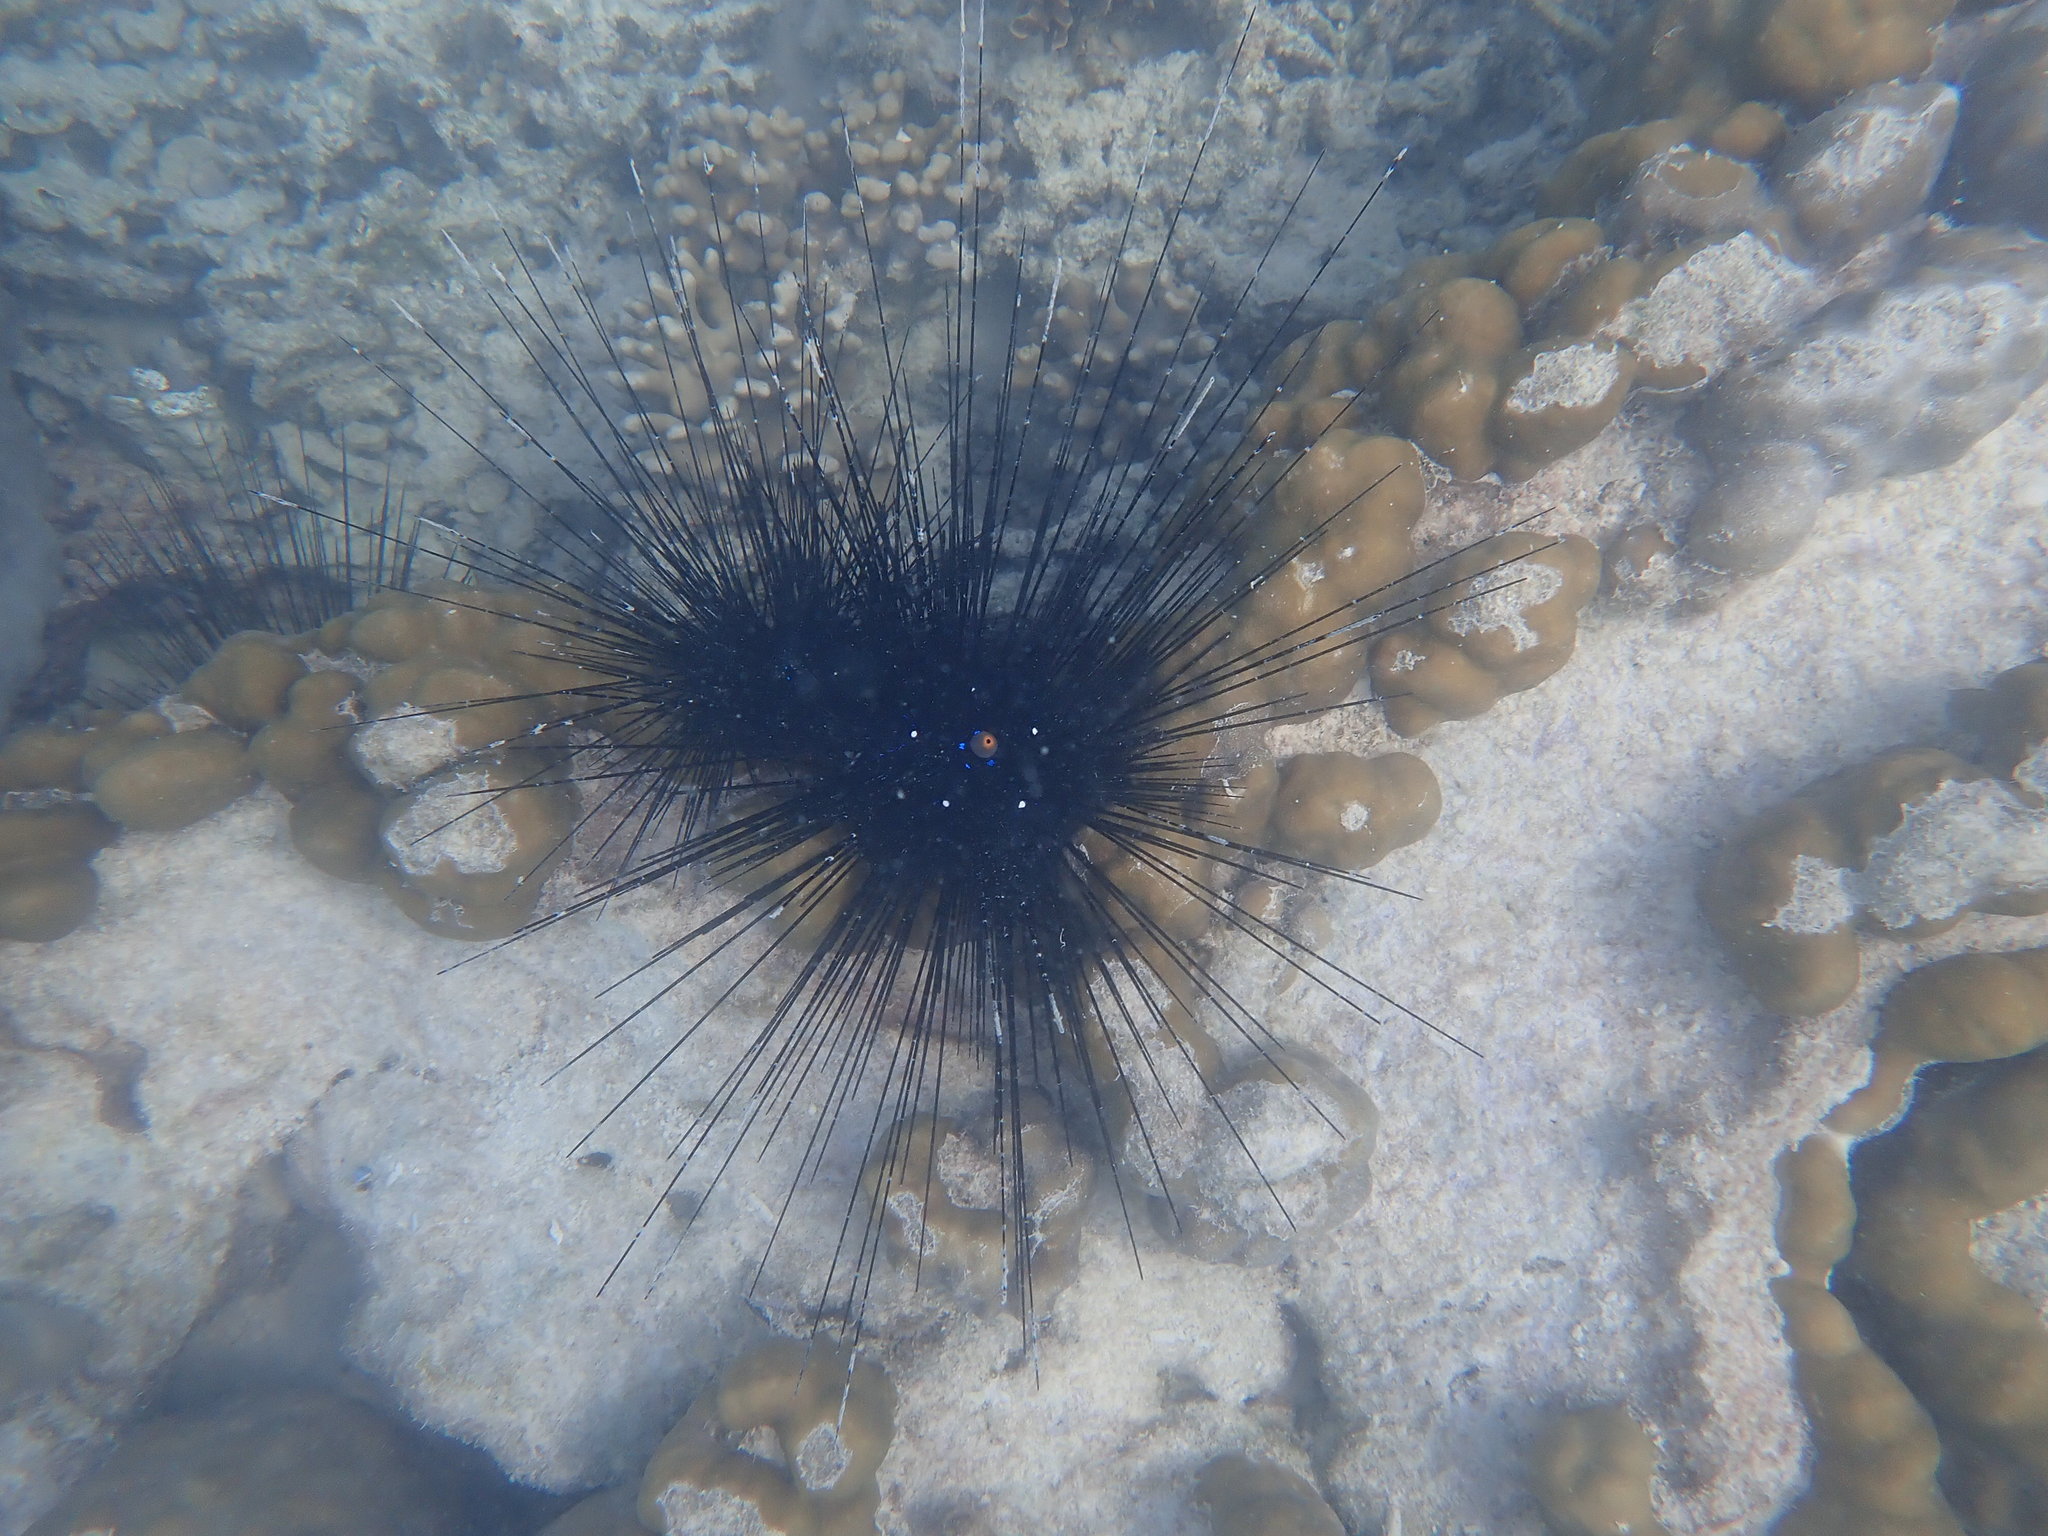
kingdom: Animalia
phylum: Echinodermata
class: Echinoidea
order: Diadematoida
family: Diadematidae
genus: Diadema
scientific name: Diadema setosum
